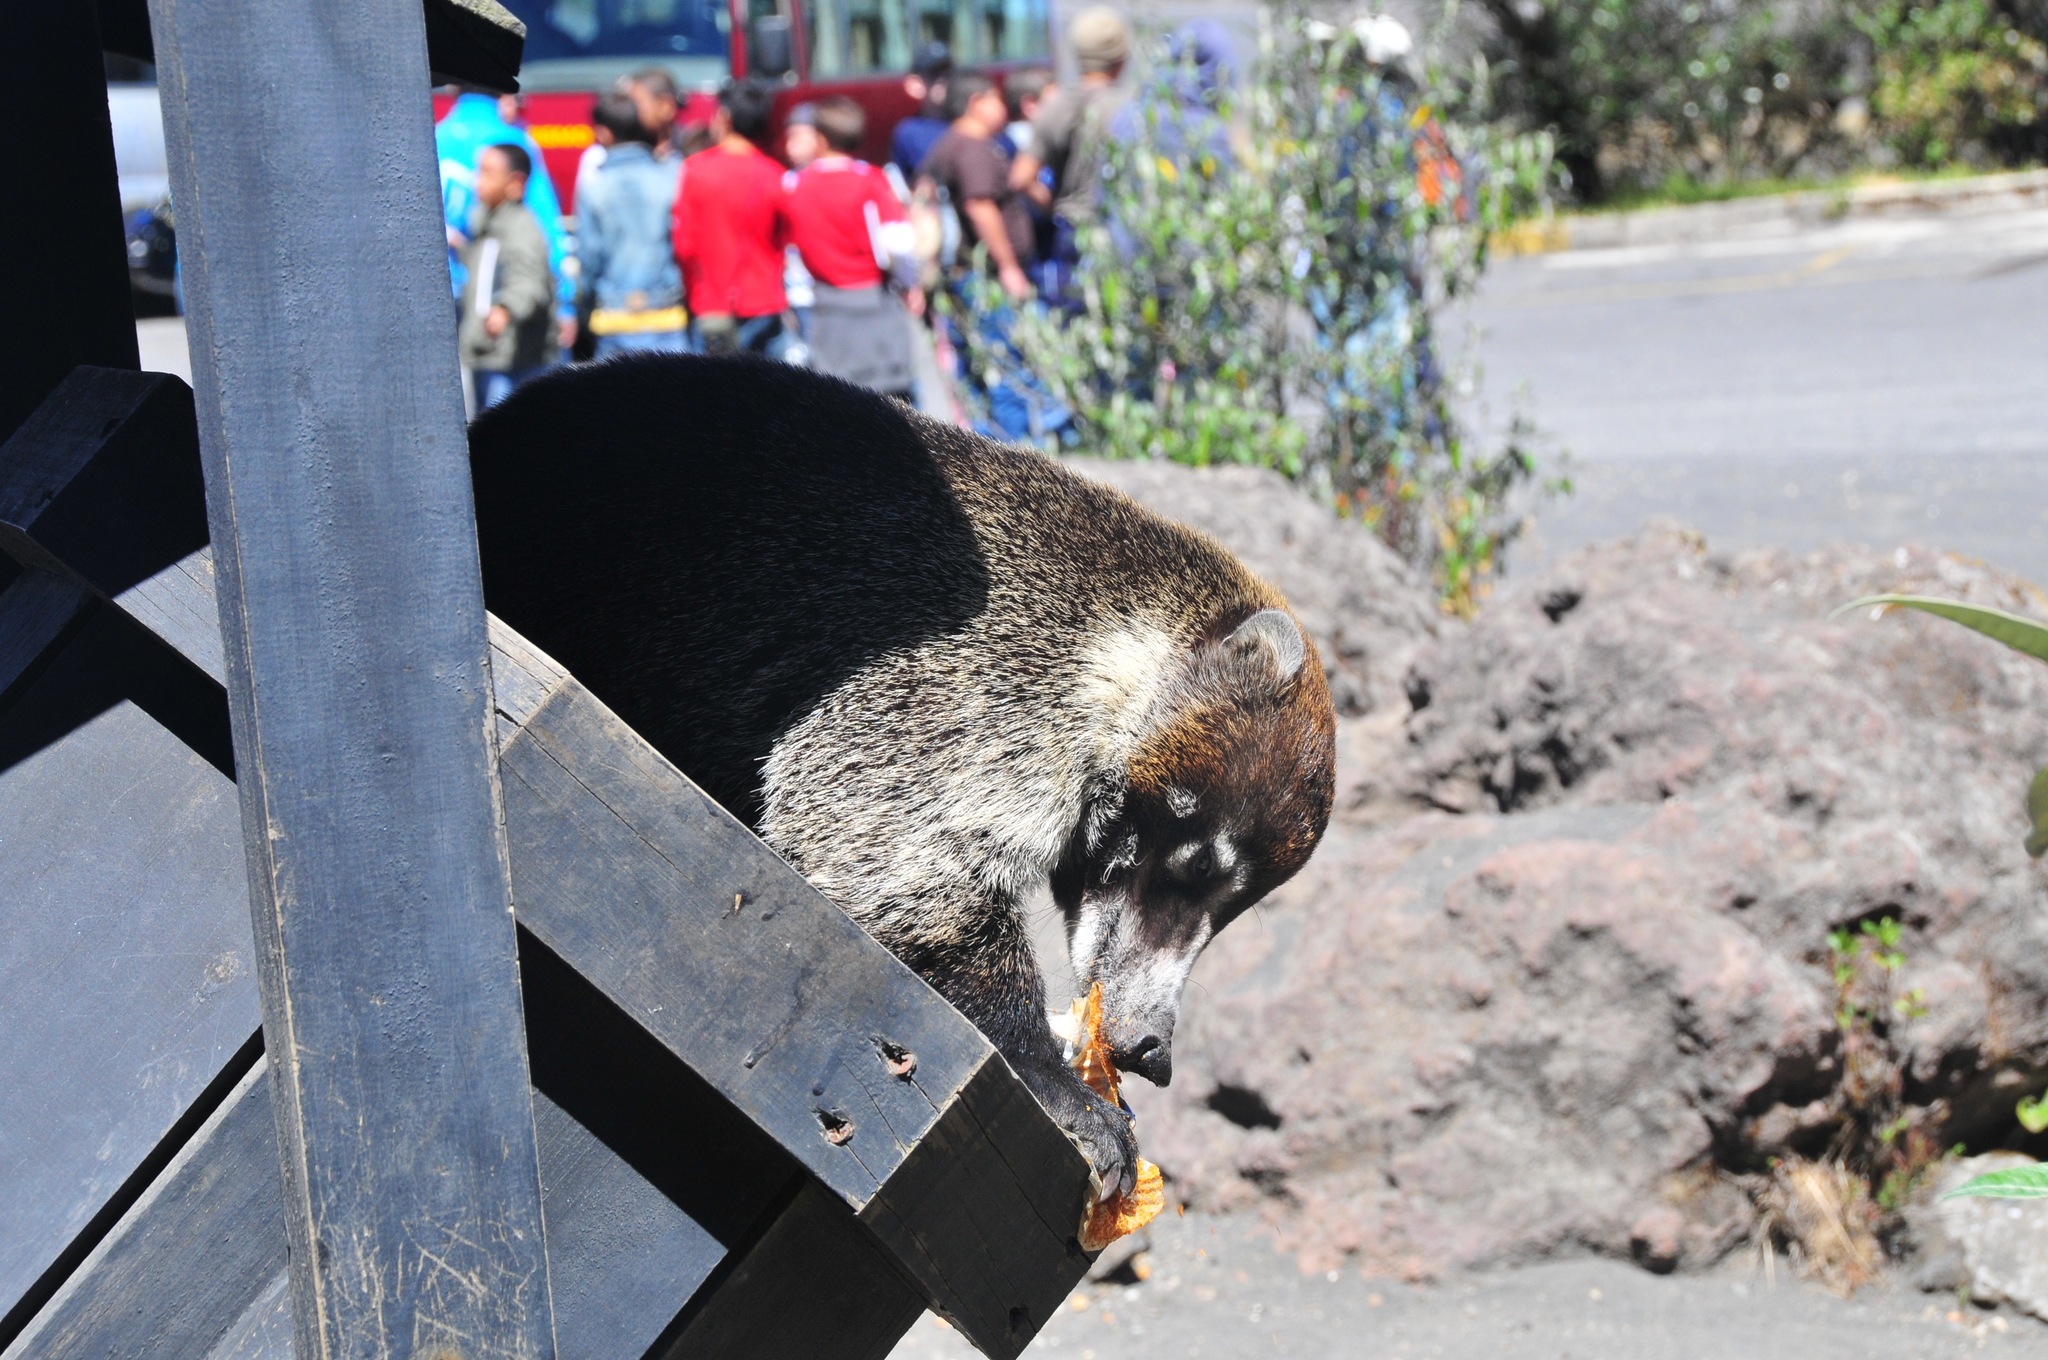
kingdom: Animalia
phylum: Chordata
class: Mammalia
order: Carnivora
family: Procyonidae
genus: Nasua
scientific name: Nasua narica
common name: White-nosed coati
